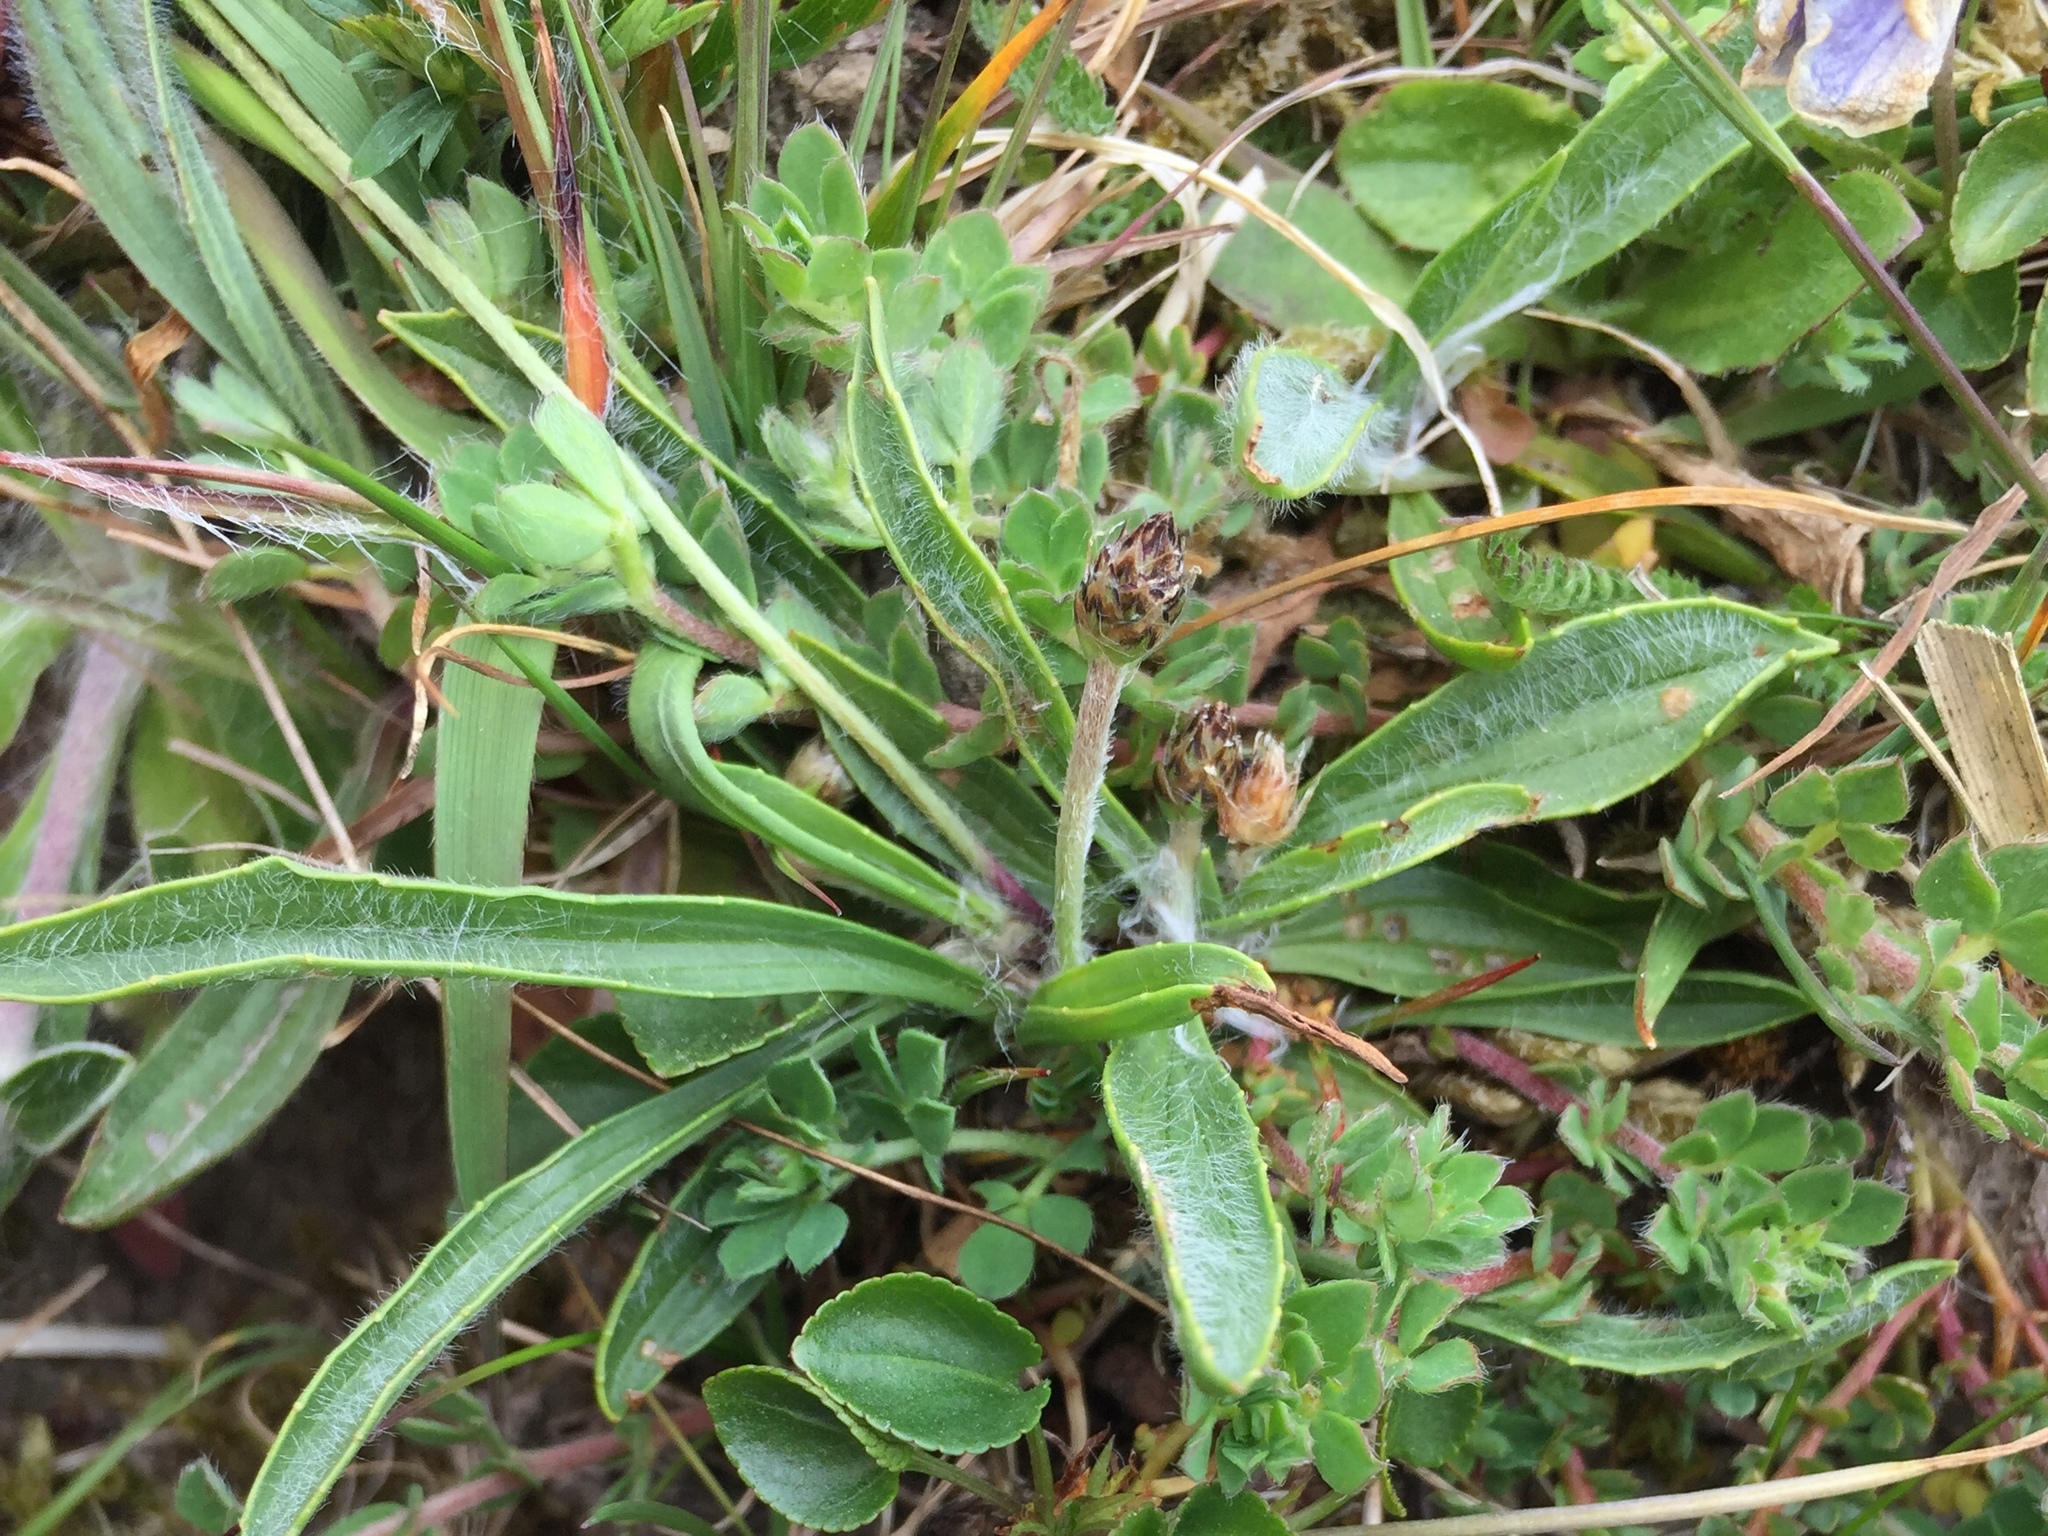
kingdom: Plantae
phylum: Tracheophyta
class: Magnoliopsida
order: Lamiales
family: Plantaginaceae
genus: Plantago
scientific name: Plantago lanceolata
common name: Ribwort plantain
